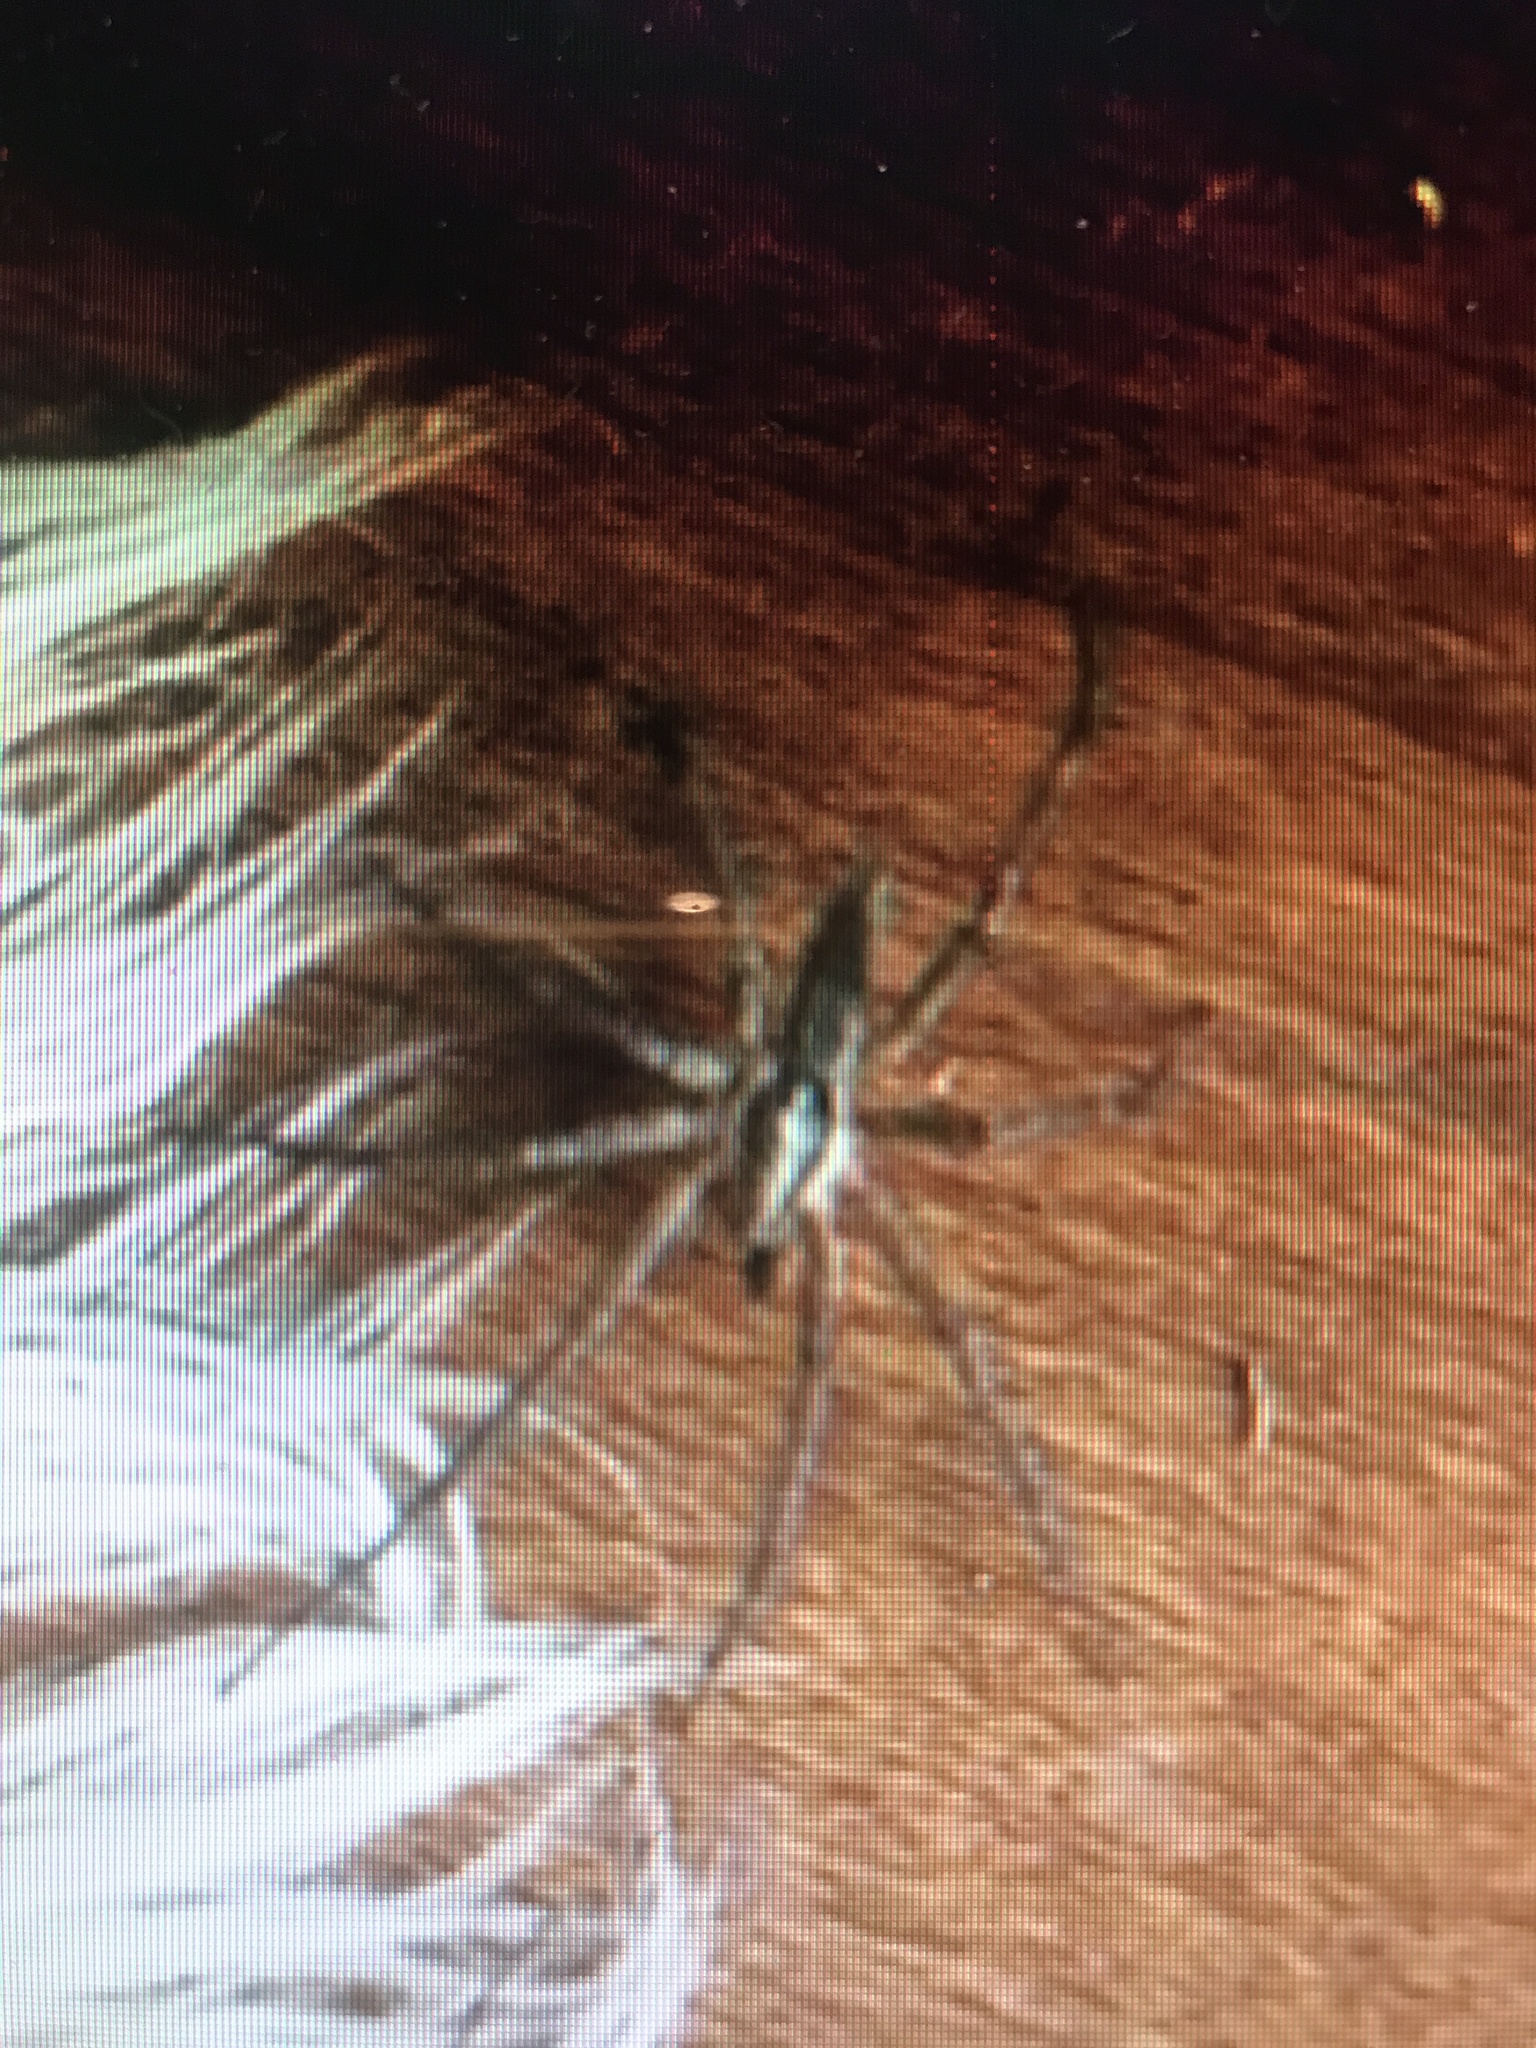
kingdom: Animalia
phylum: Arthropoda
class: Arachnida
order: Araneae
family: Agelenidae
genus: Agelenopsis
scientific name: Agelenopsis
